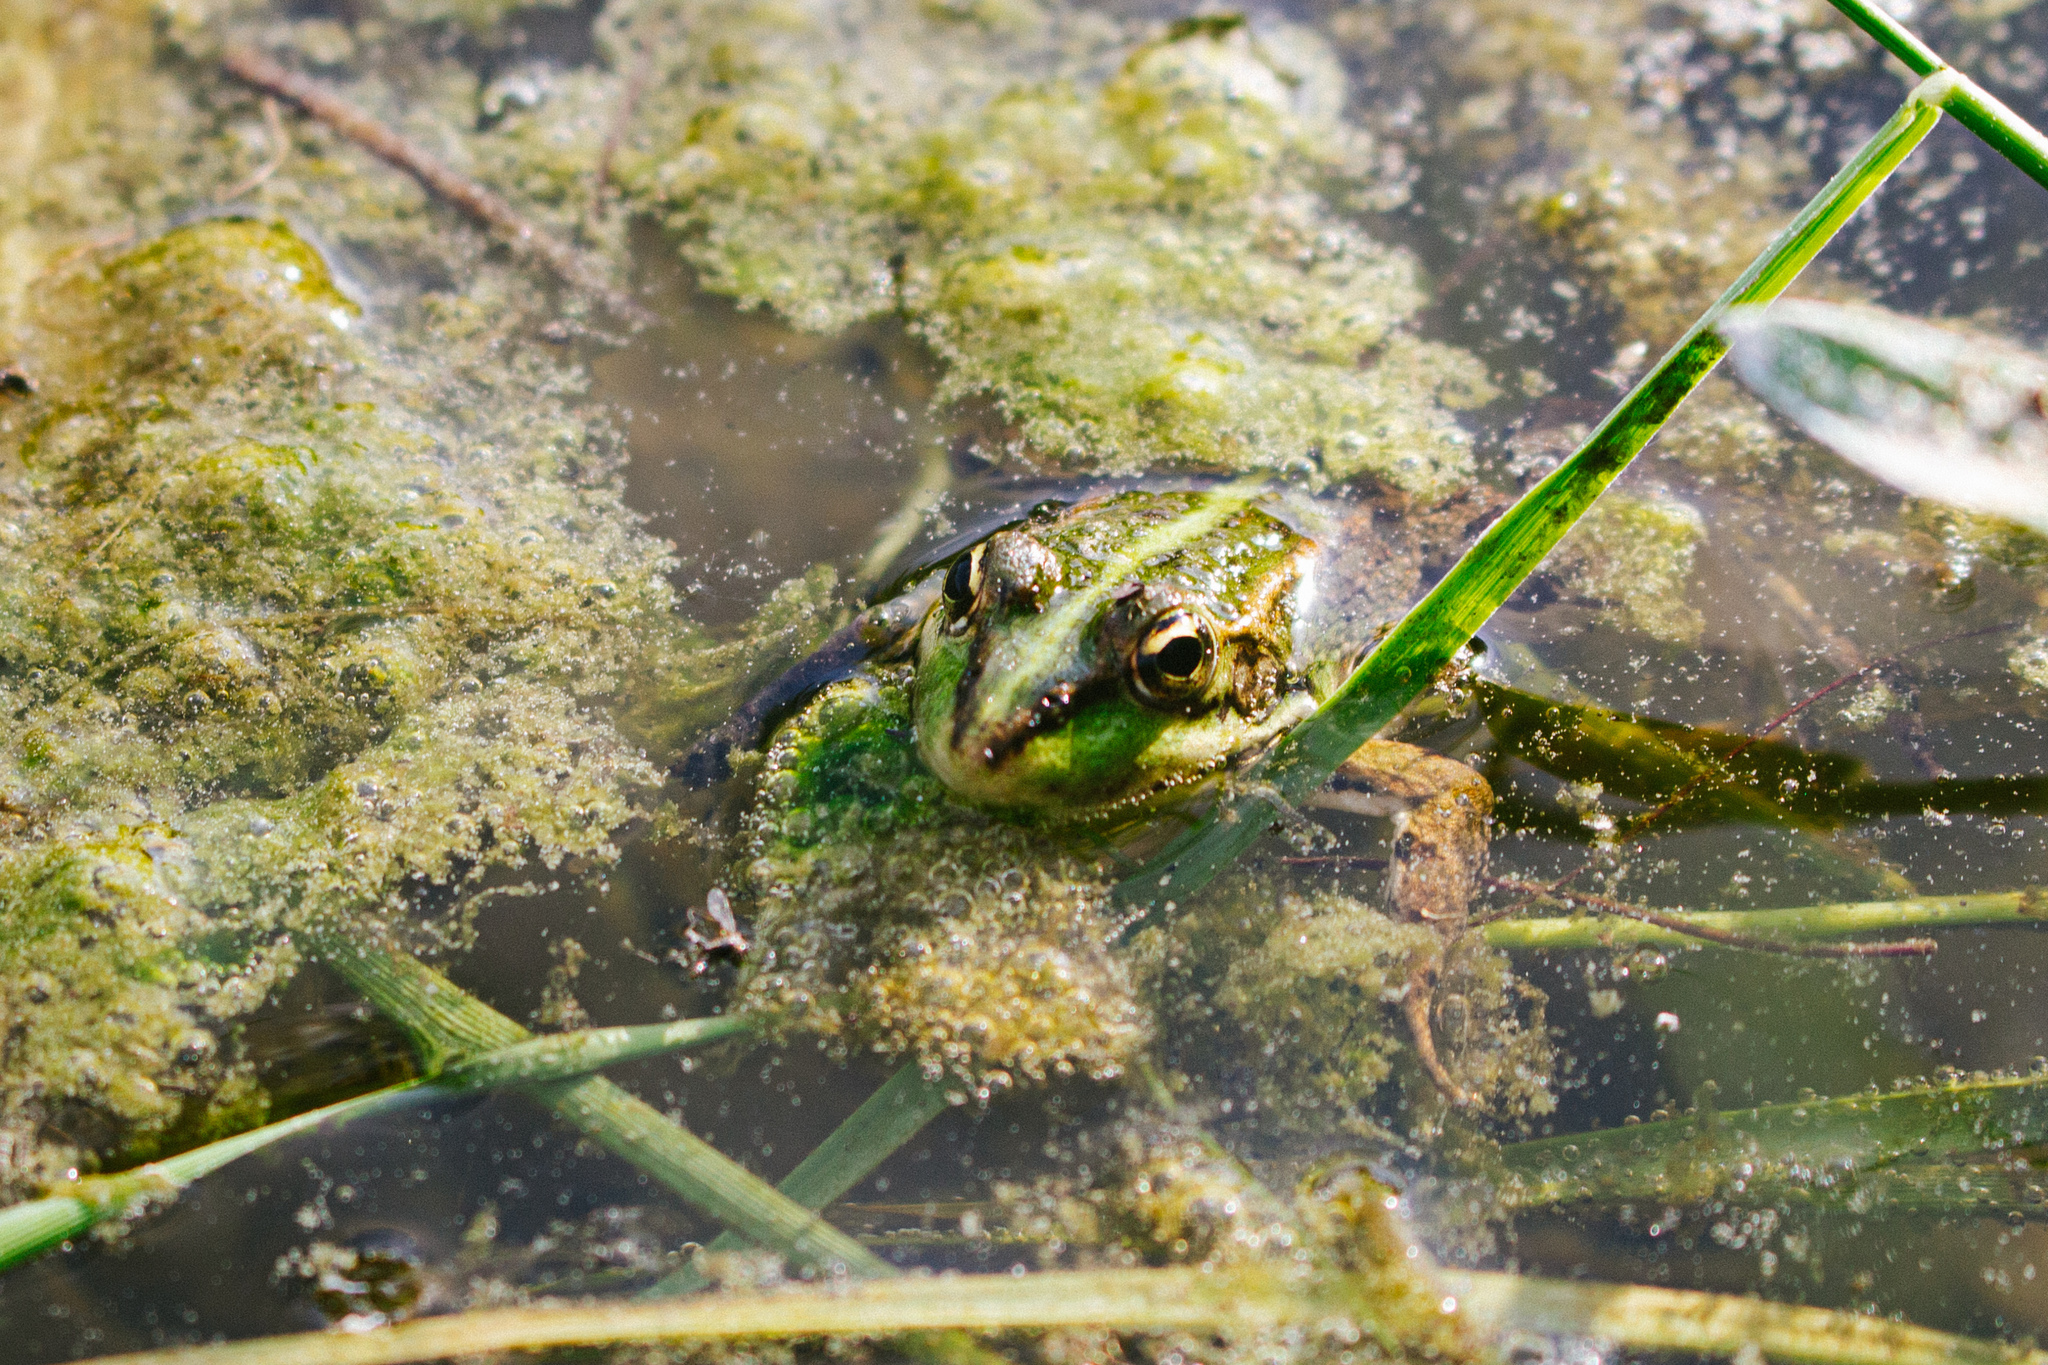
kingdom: Animalia
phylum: Chordata
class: Amphibia
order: Anura
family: Ranidae
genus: Pelophylax
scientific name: Pelophylax perezi
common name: Perez's frog
